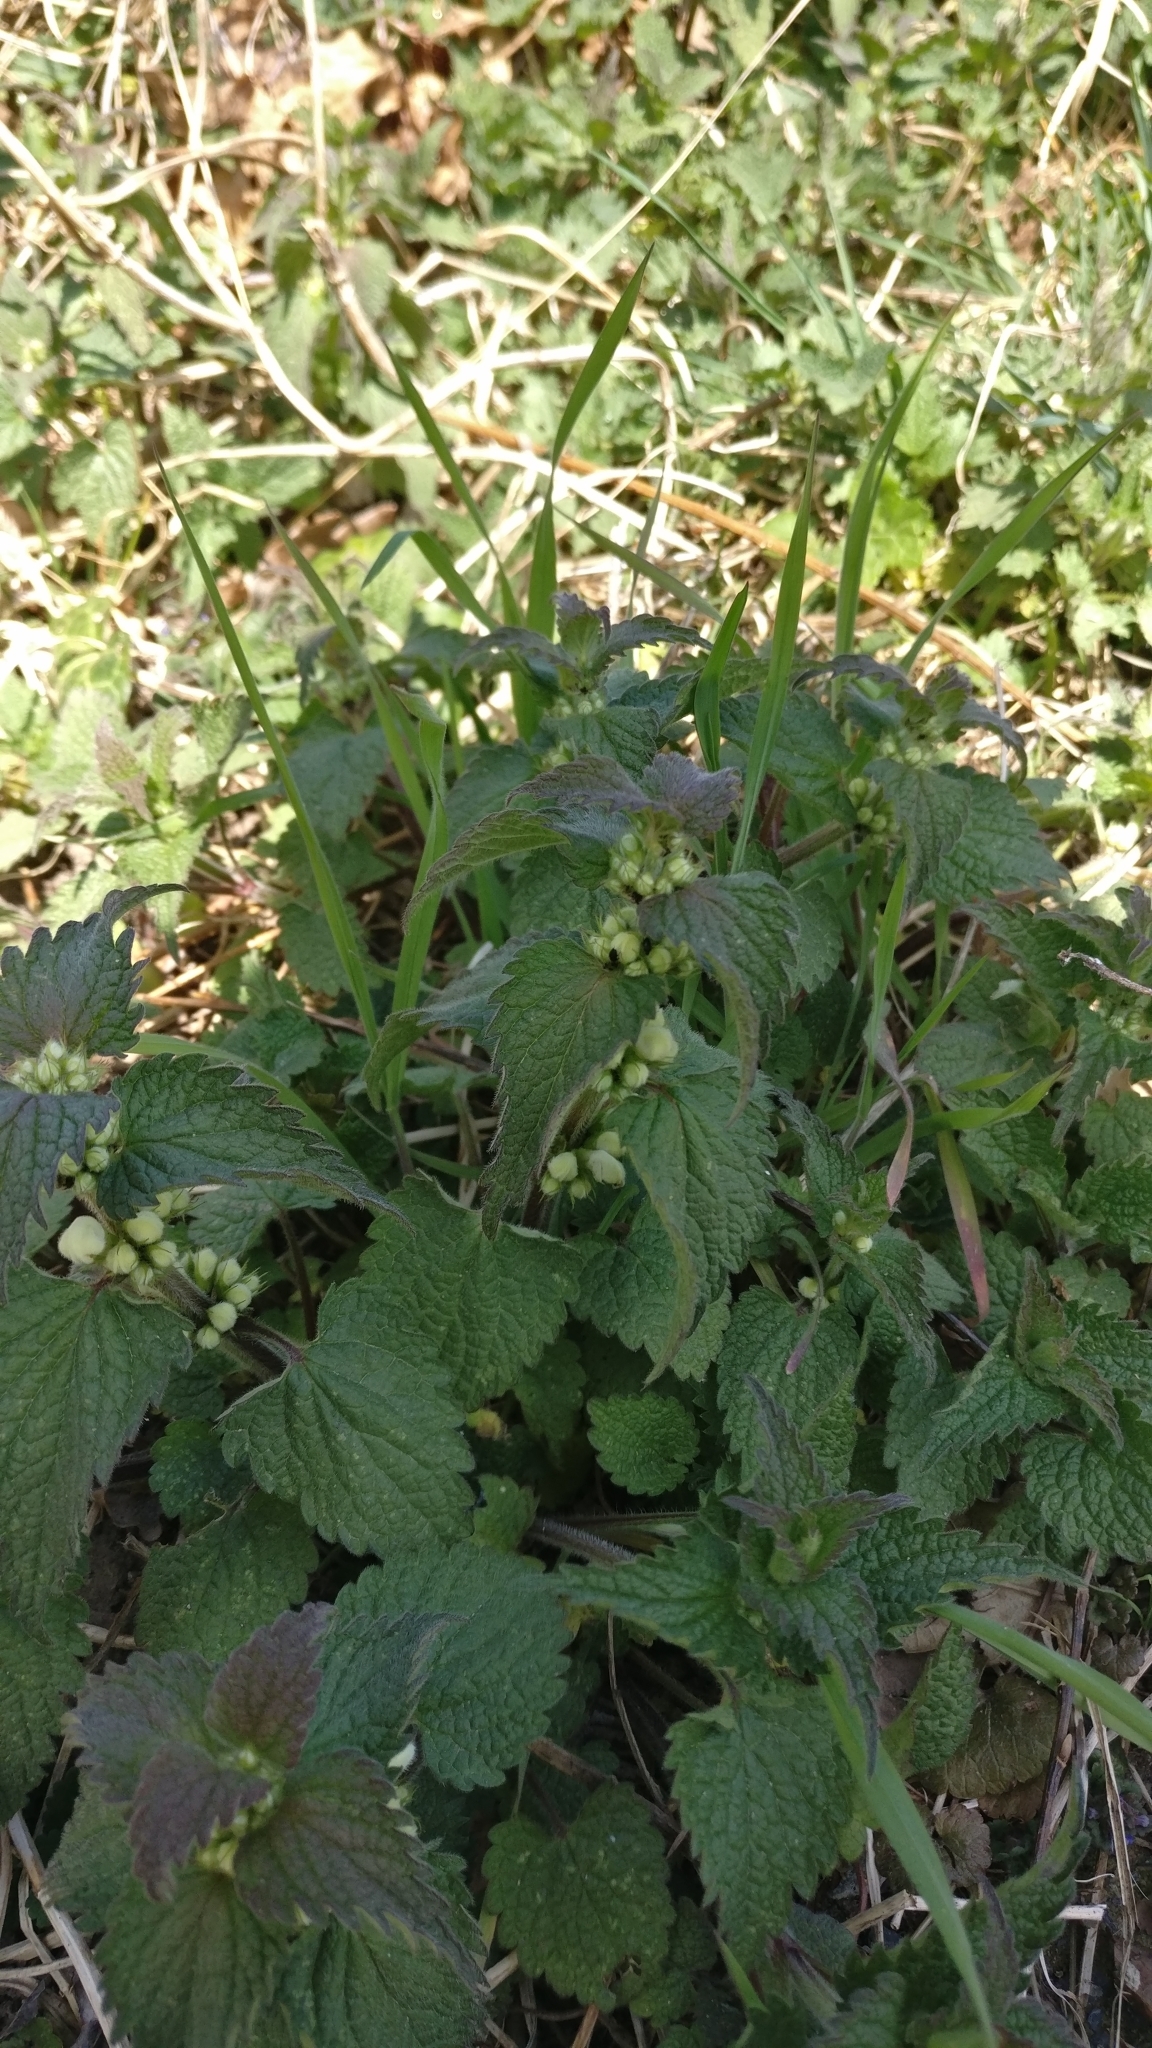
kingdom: Plantae
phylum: Tracheophyta
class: Magnoliopsida
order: Lamiales
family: Lamiaceae
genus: Lamium
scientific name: Lamium album
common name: White dead-nettle
